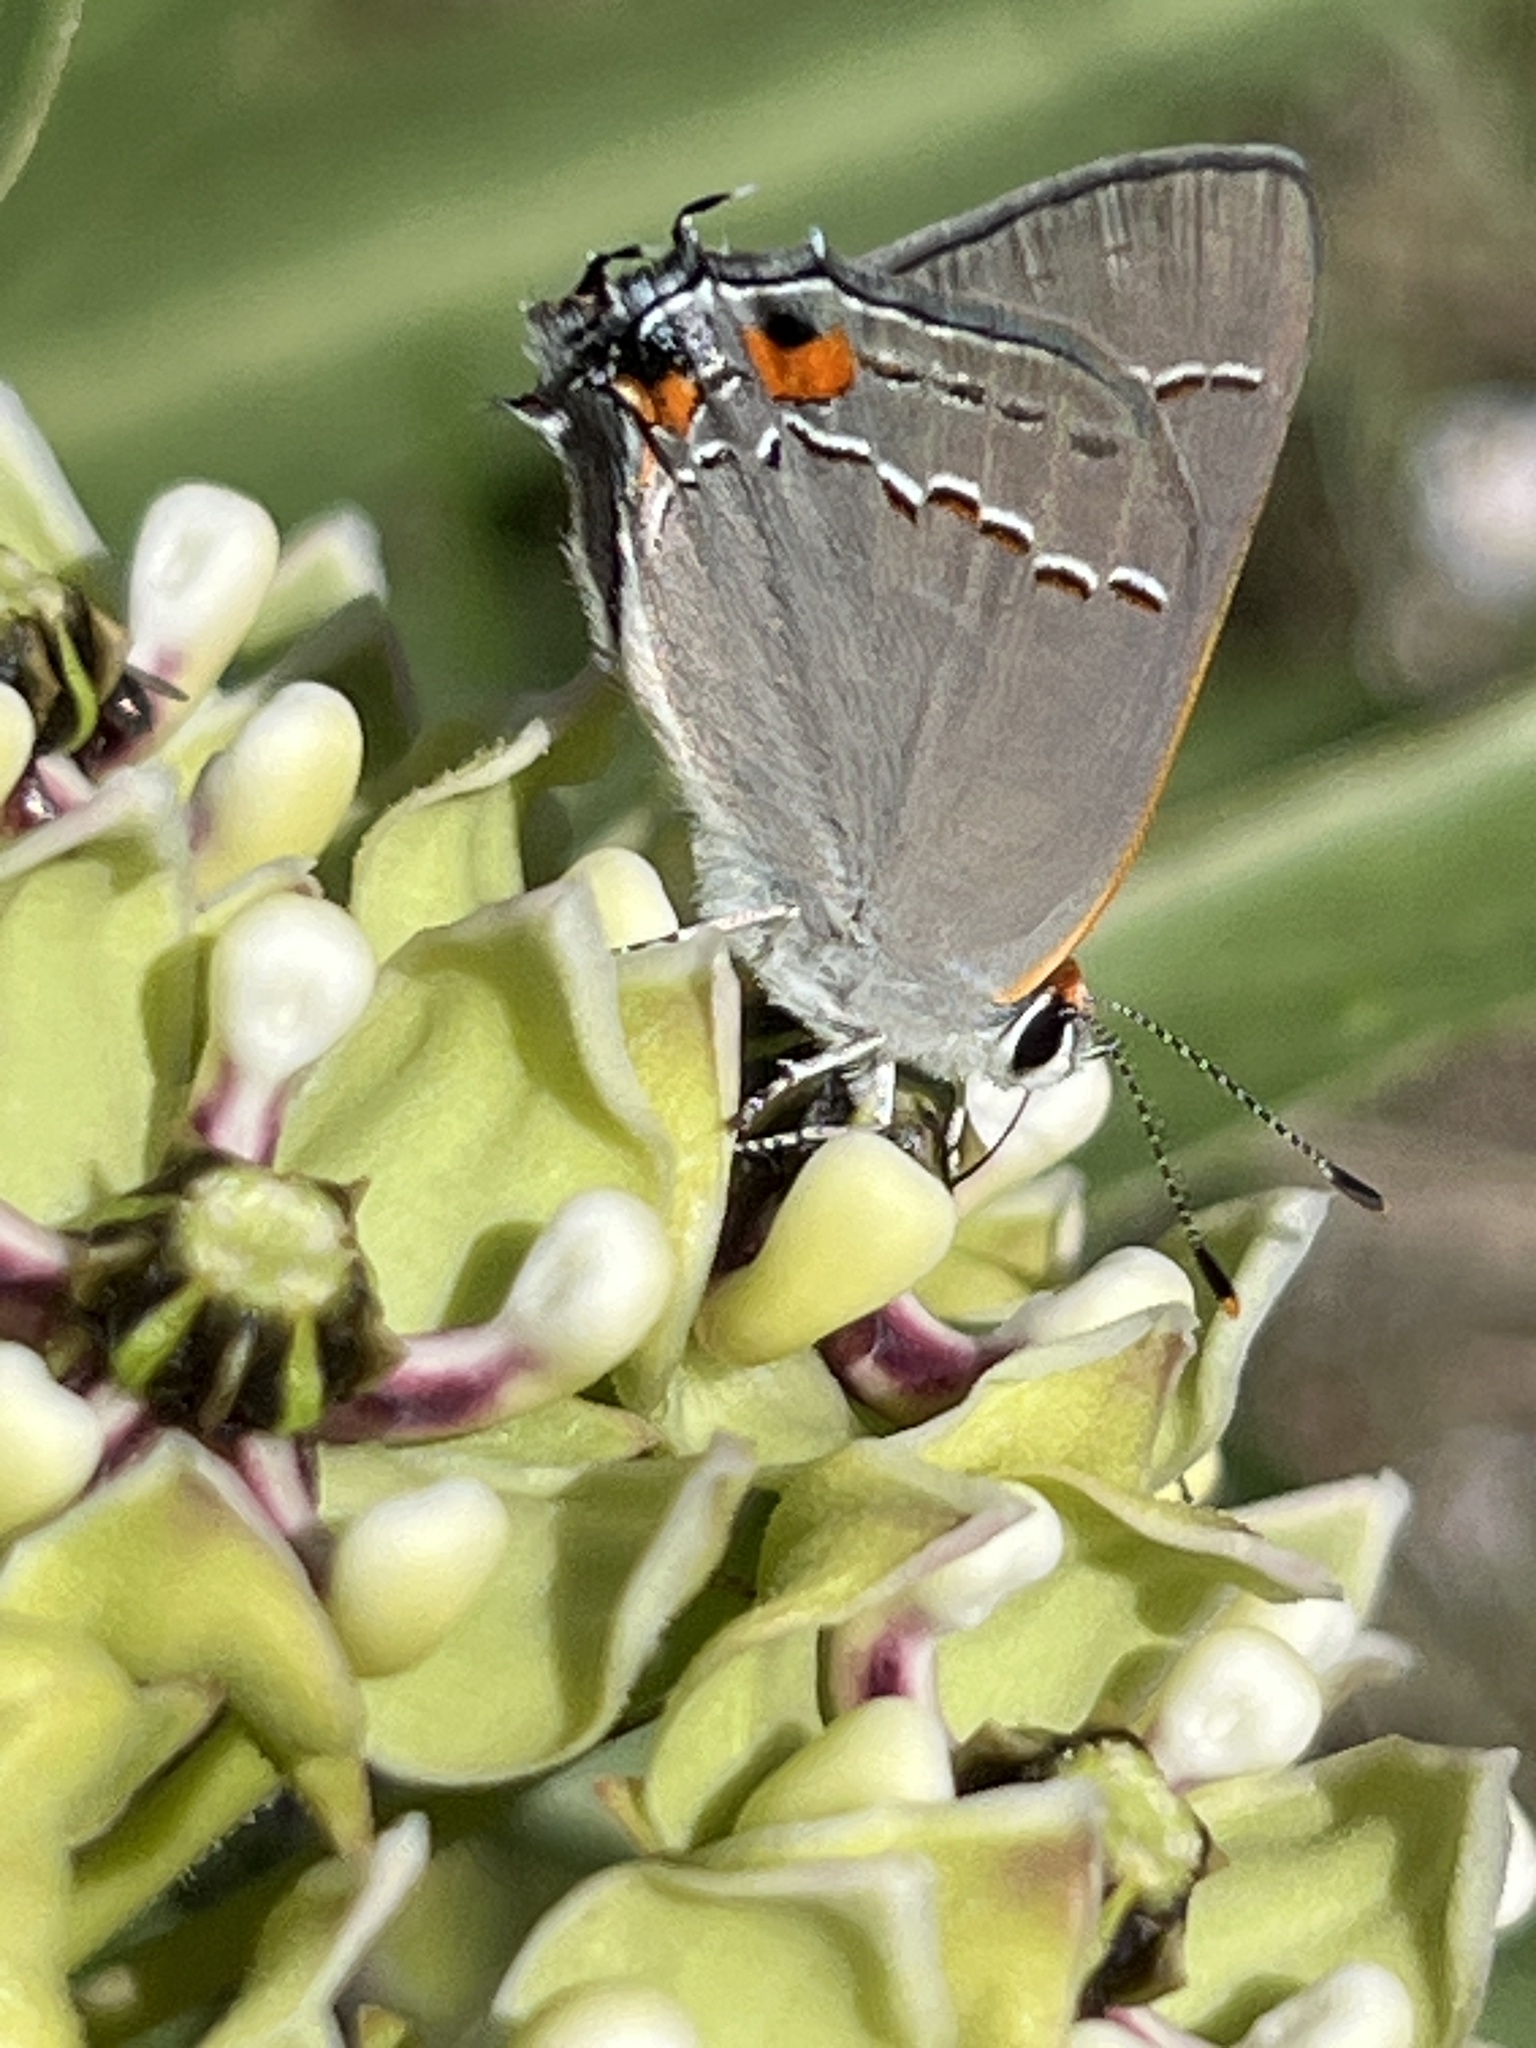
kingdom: Animalia
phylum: Arthropoda
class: Insecta
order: Lepidoptera
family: Lycaenidae
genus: Strymon
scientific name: Strymon melinus
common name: Gray hairstreak
